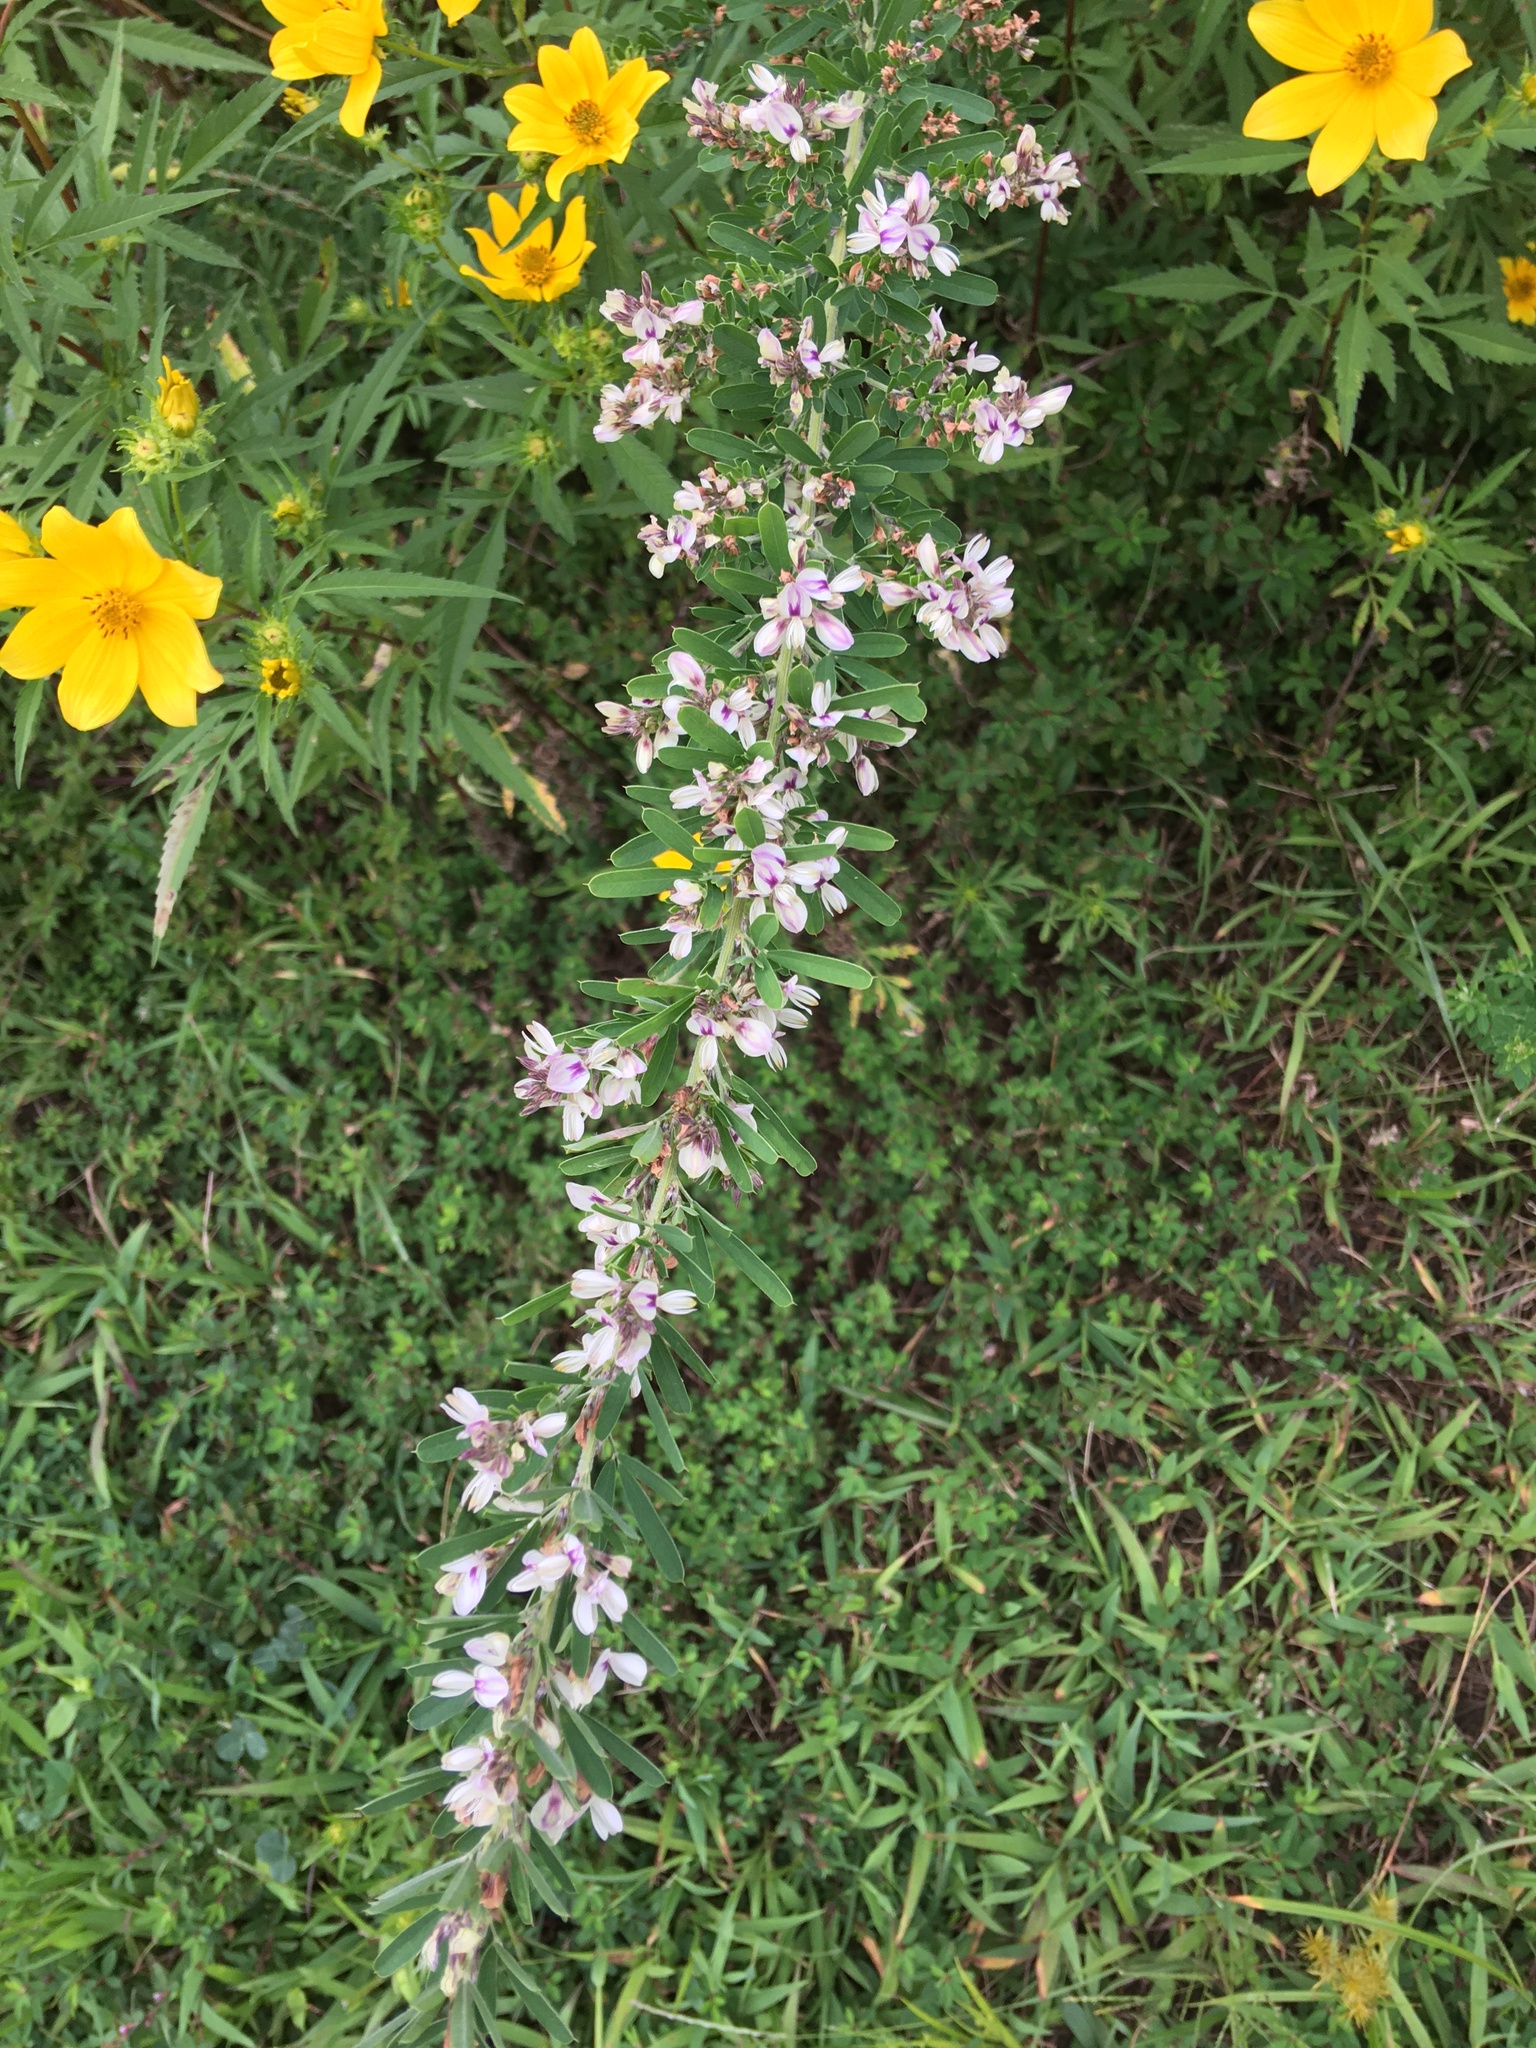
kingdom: Plantae
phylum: Tracheophyta
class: Magnoliopsida
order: Fabales
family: Fabaceae
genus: Lespedeza
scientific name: Lespedeza cuneata
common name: Chinese bush-clover
